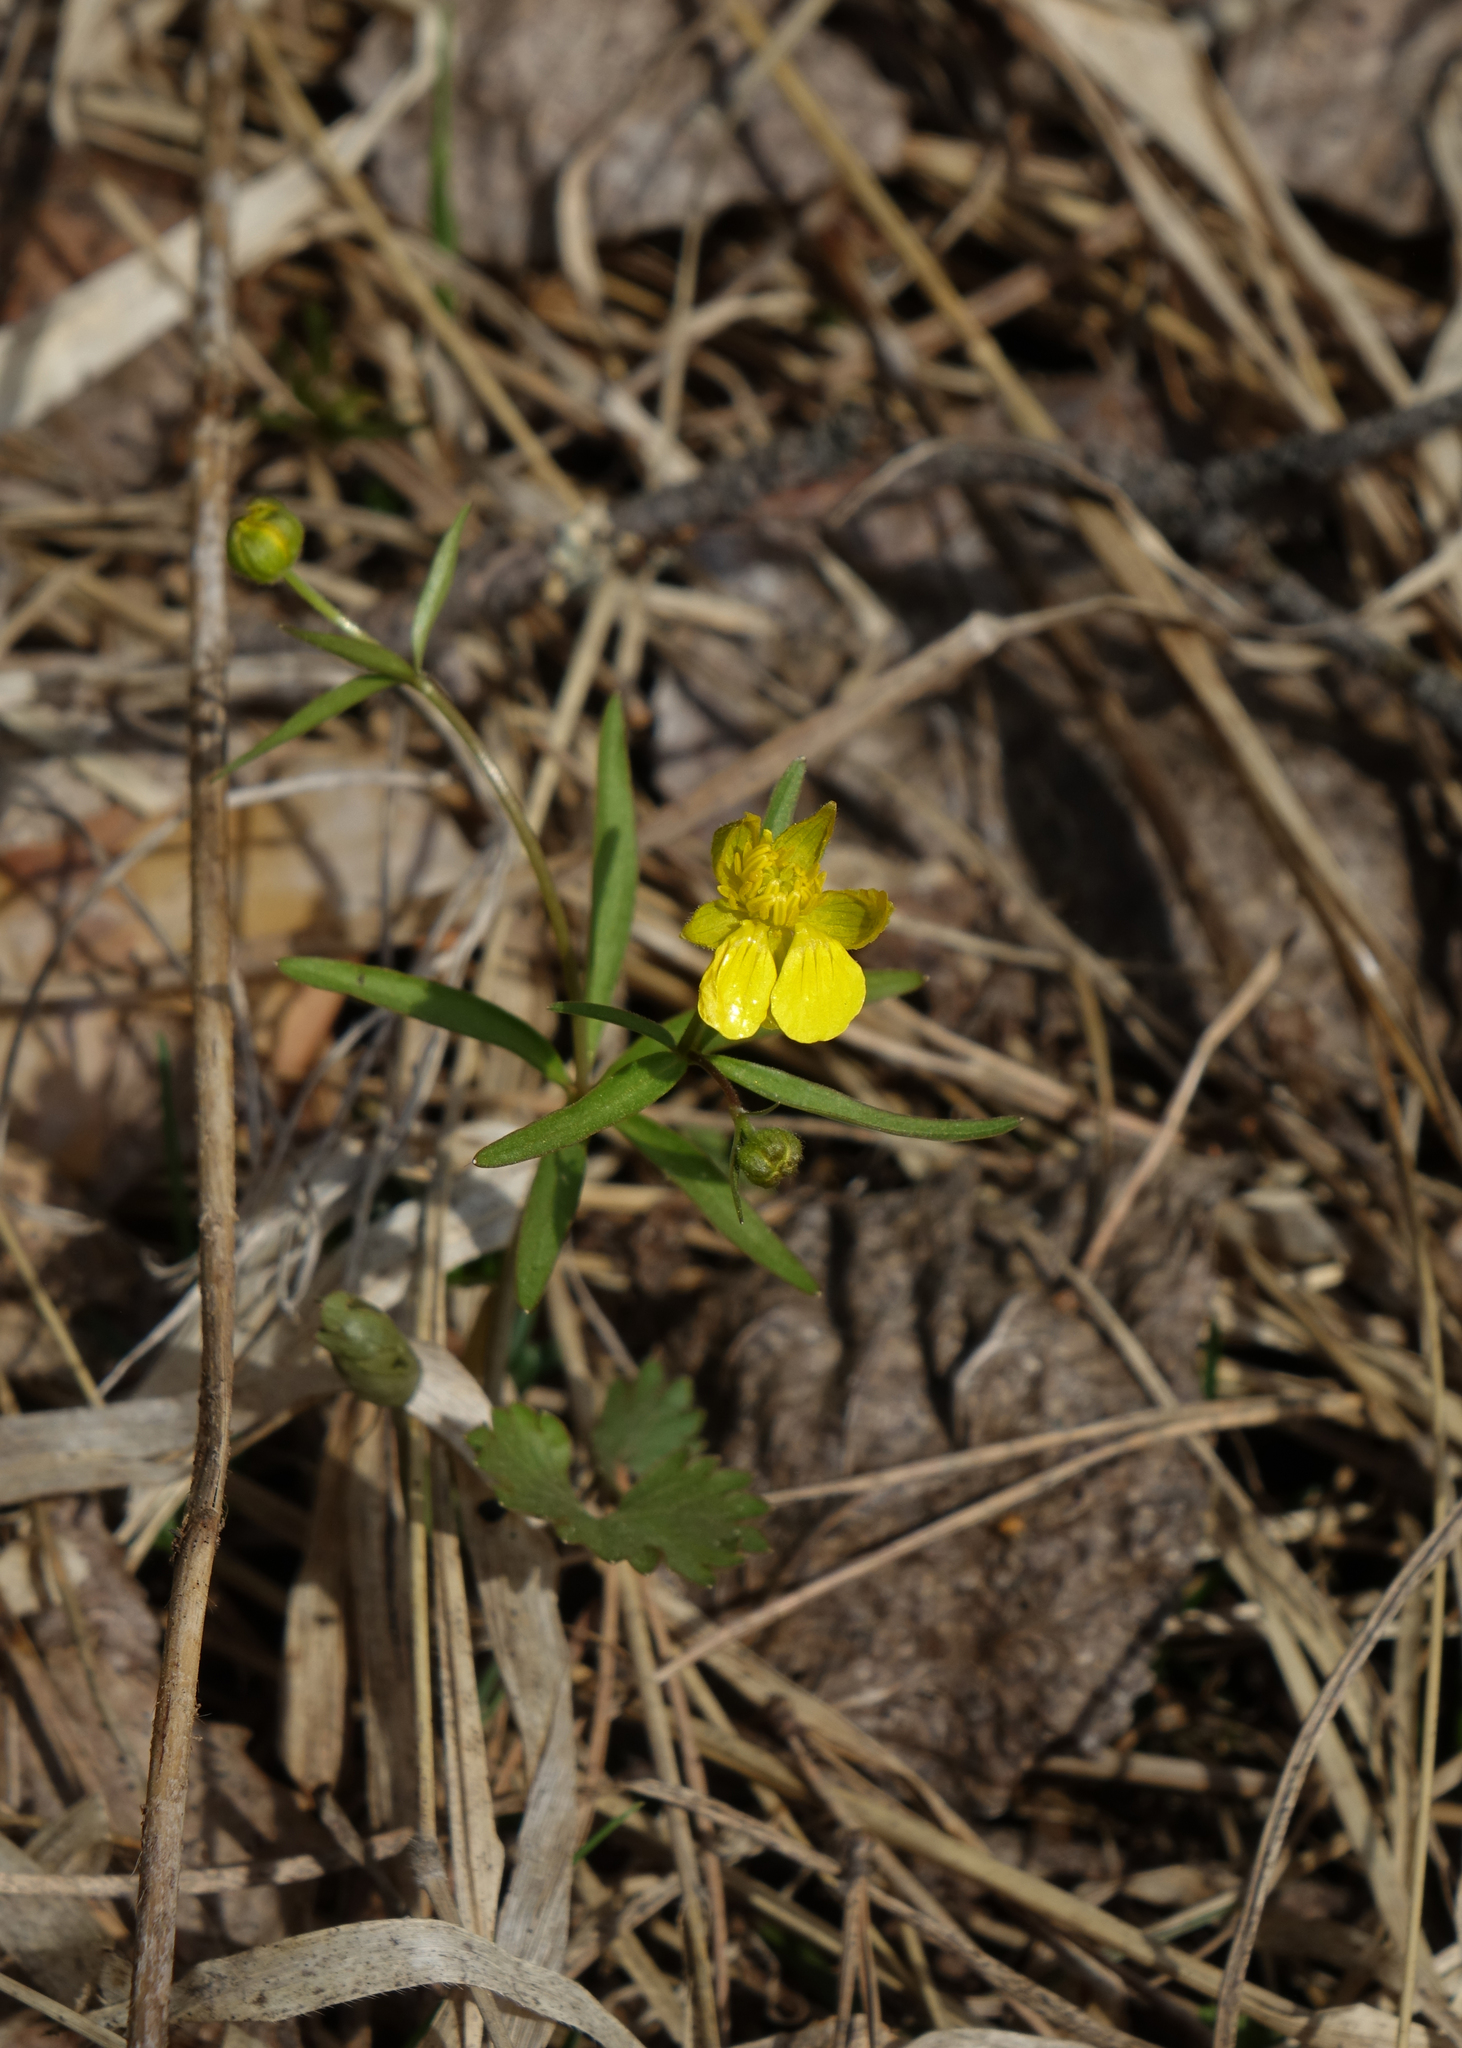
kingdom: Plantae
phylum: Tracheophyta
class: Magnoliopsida
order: Ranunculales
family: Ranunculaceae
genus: Ranunculus
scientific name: Ranunculus monophyllus
